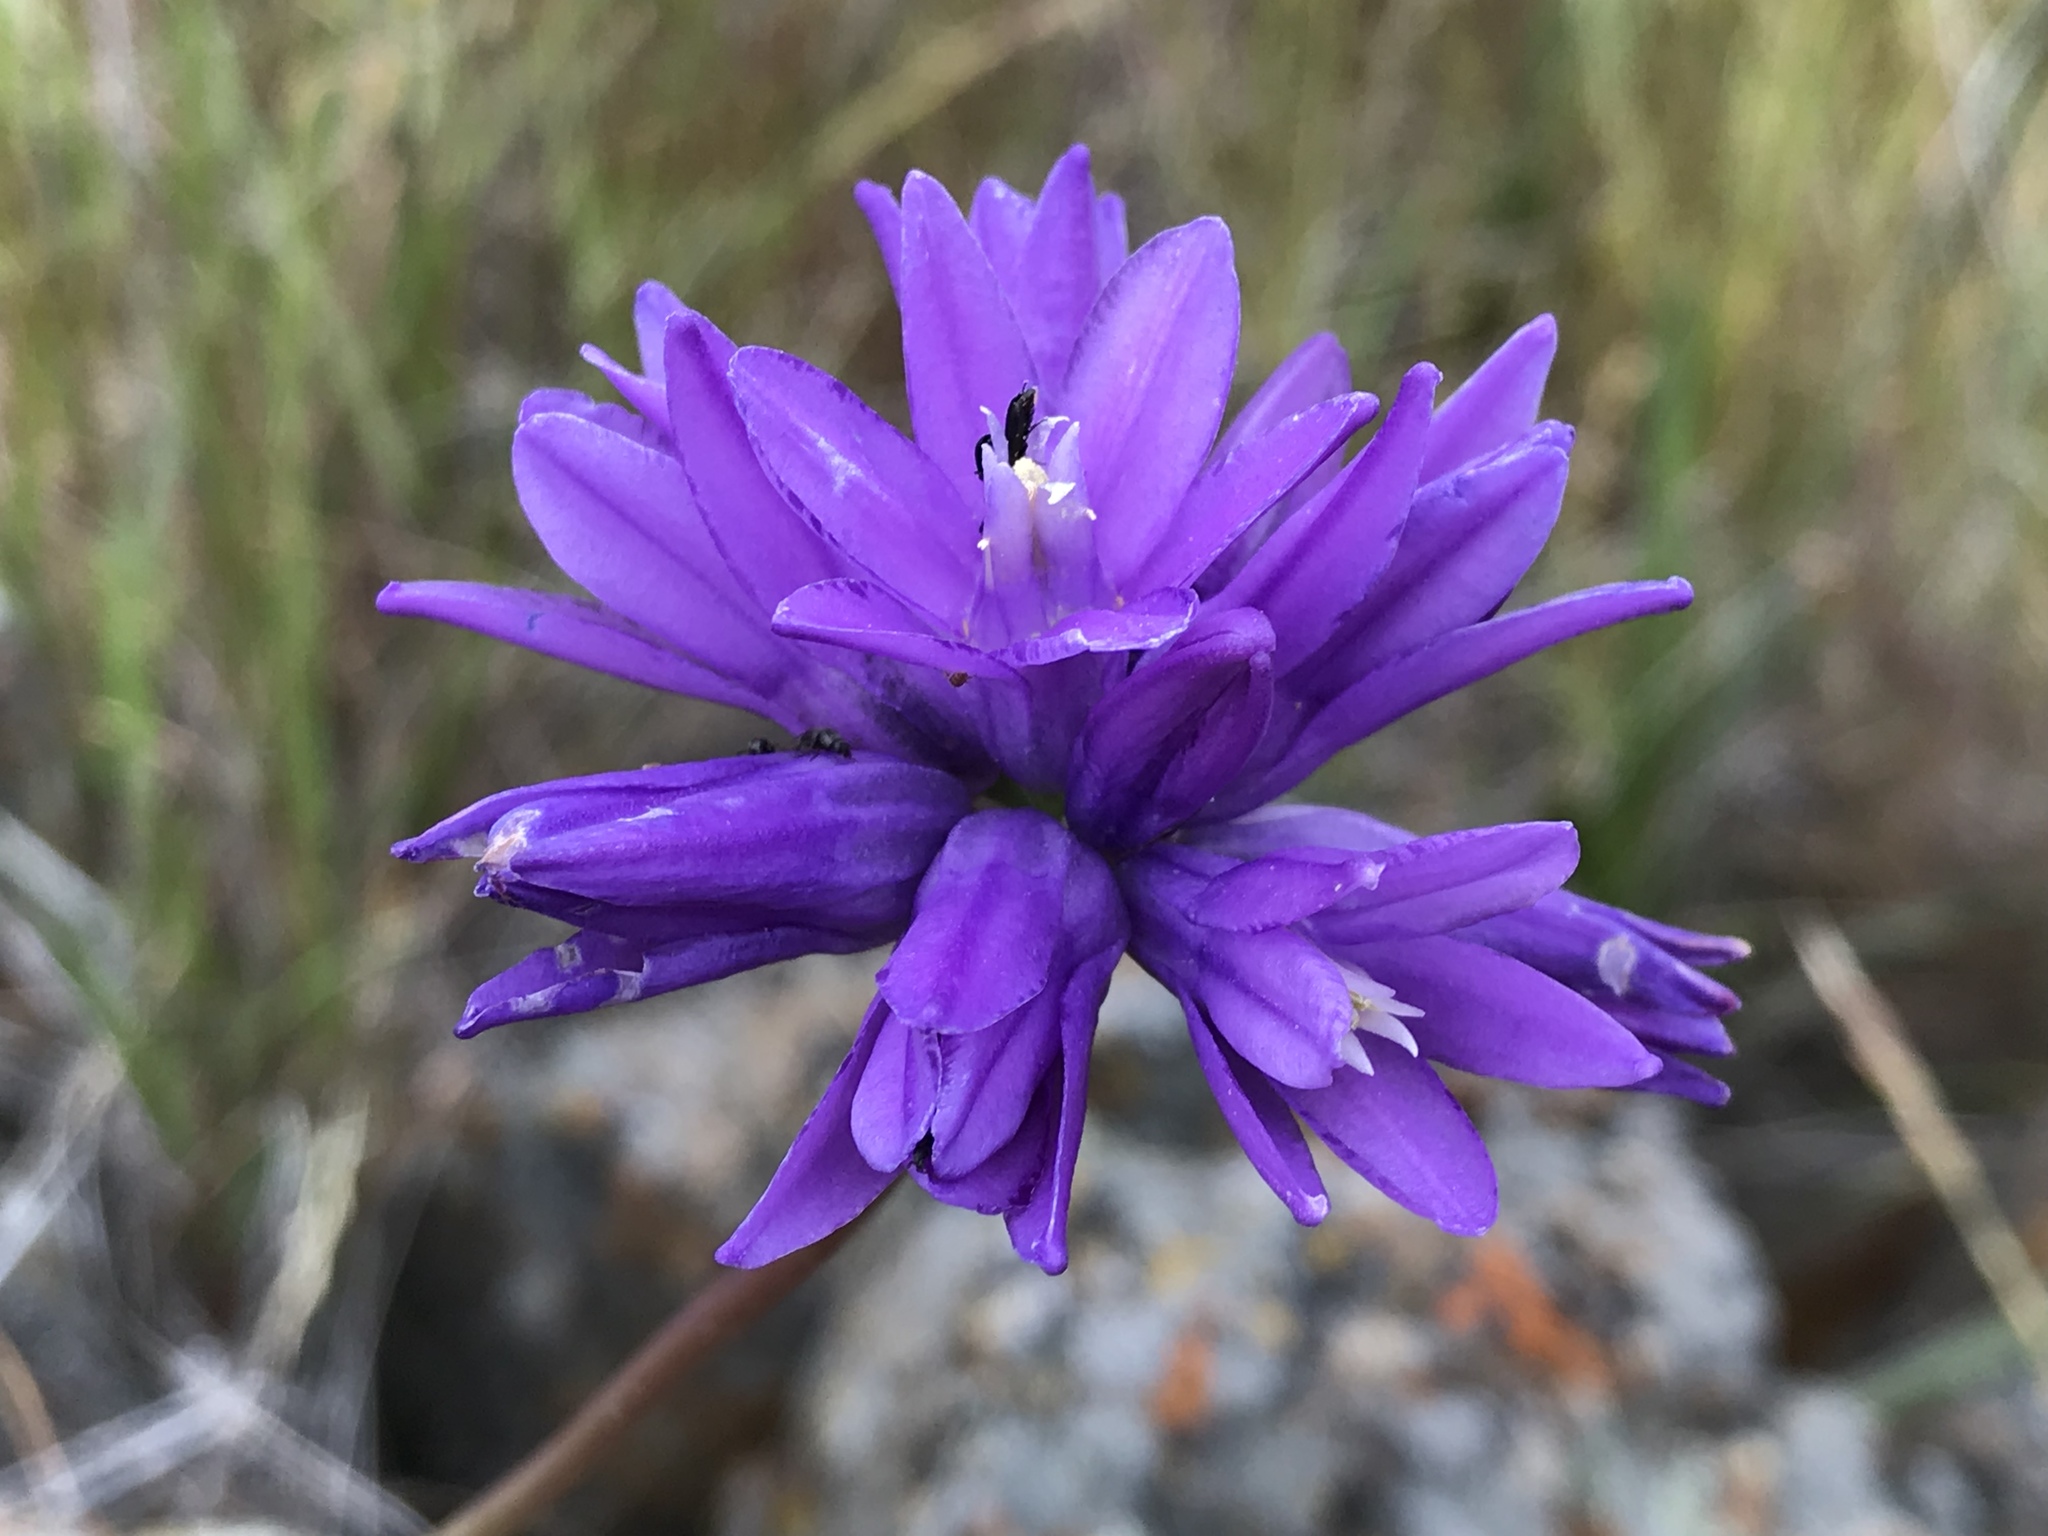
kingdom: Plantae
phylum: Tracheophyta
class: Liliopsida
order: Asparagales
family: Asparagaceae
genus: Dipterostemon
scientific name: Dipterostemon capitatus
